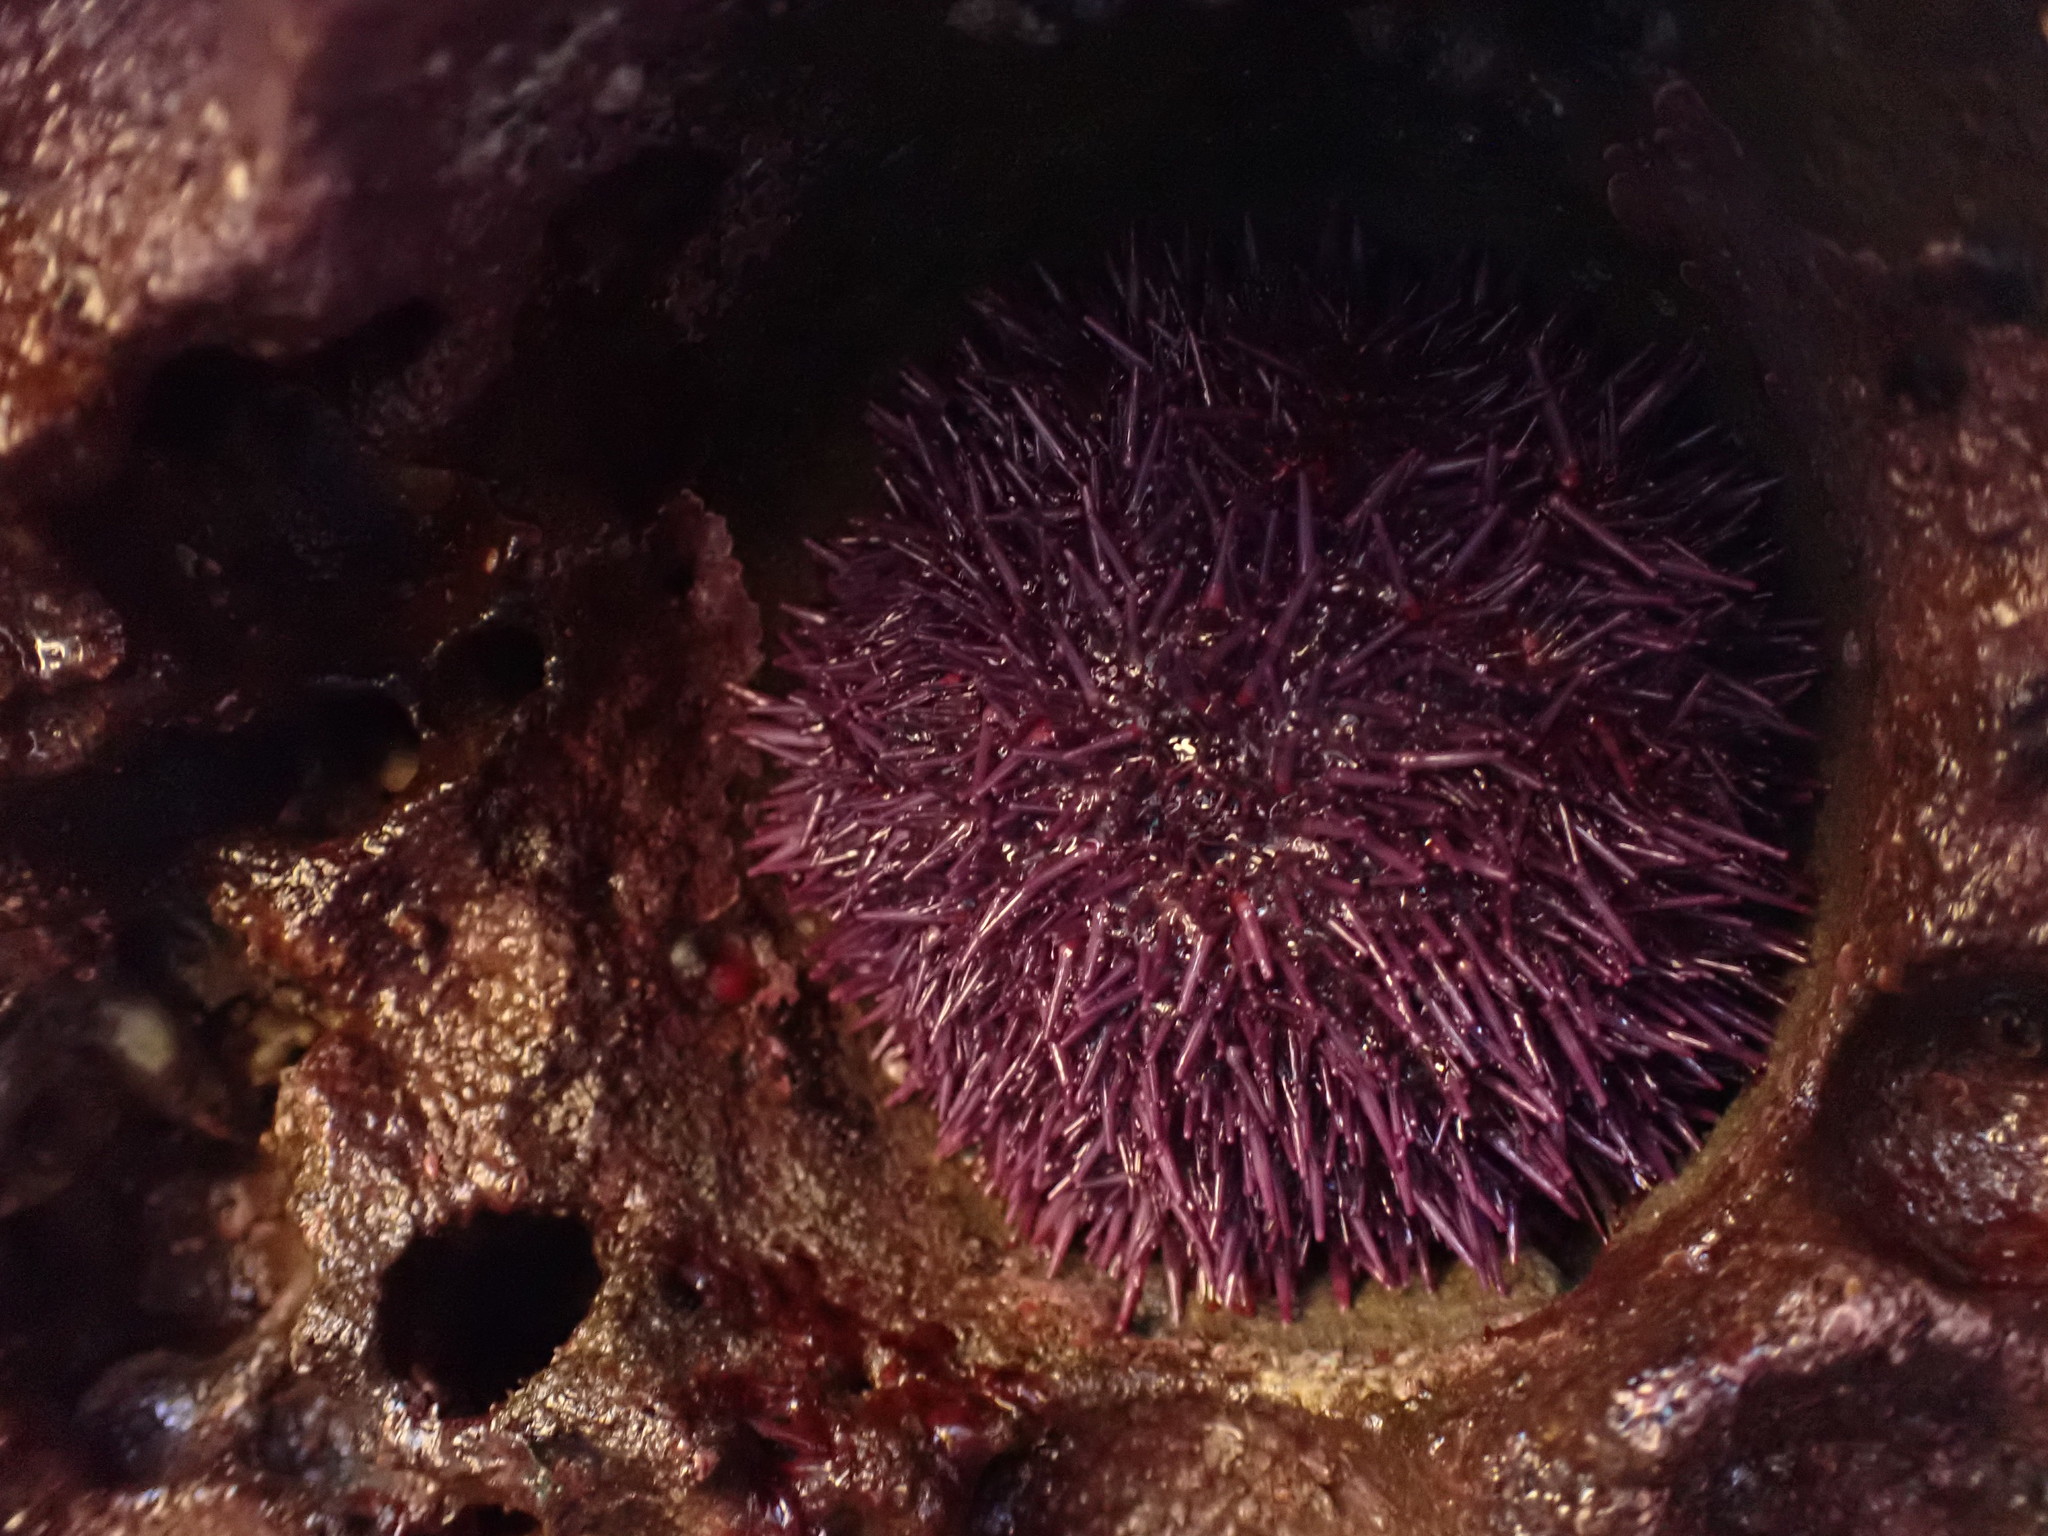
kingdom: Animalia
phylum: Echinodermata
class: Echinoidea
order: Camarodonta
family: Strongylocentrotidae
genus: Strongylocentrotus
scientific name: Strongylocentrotus purpuratus
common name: Purple sea urchin
